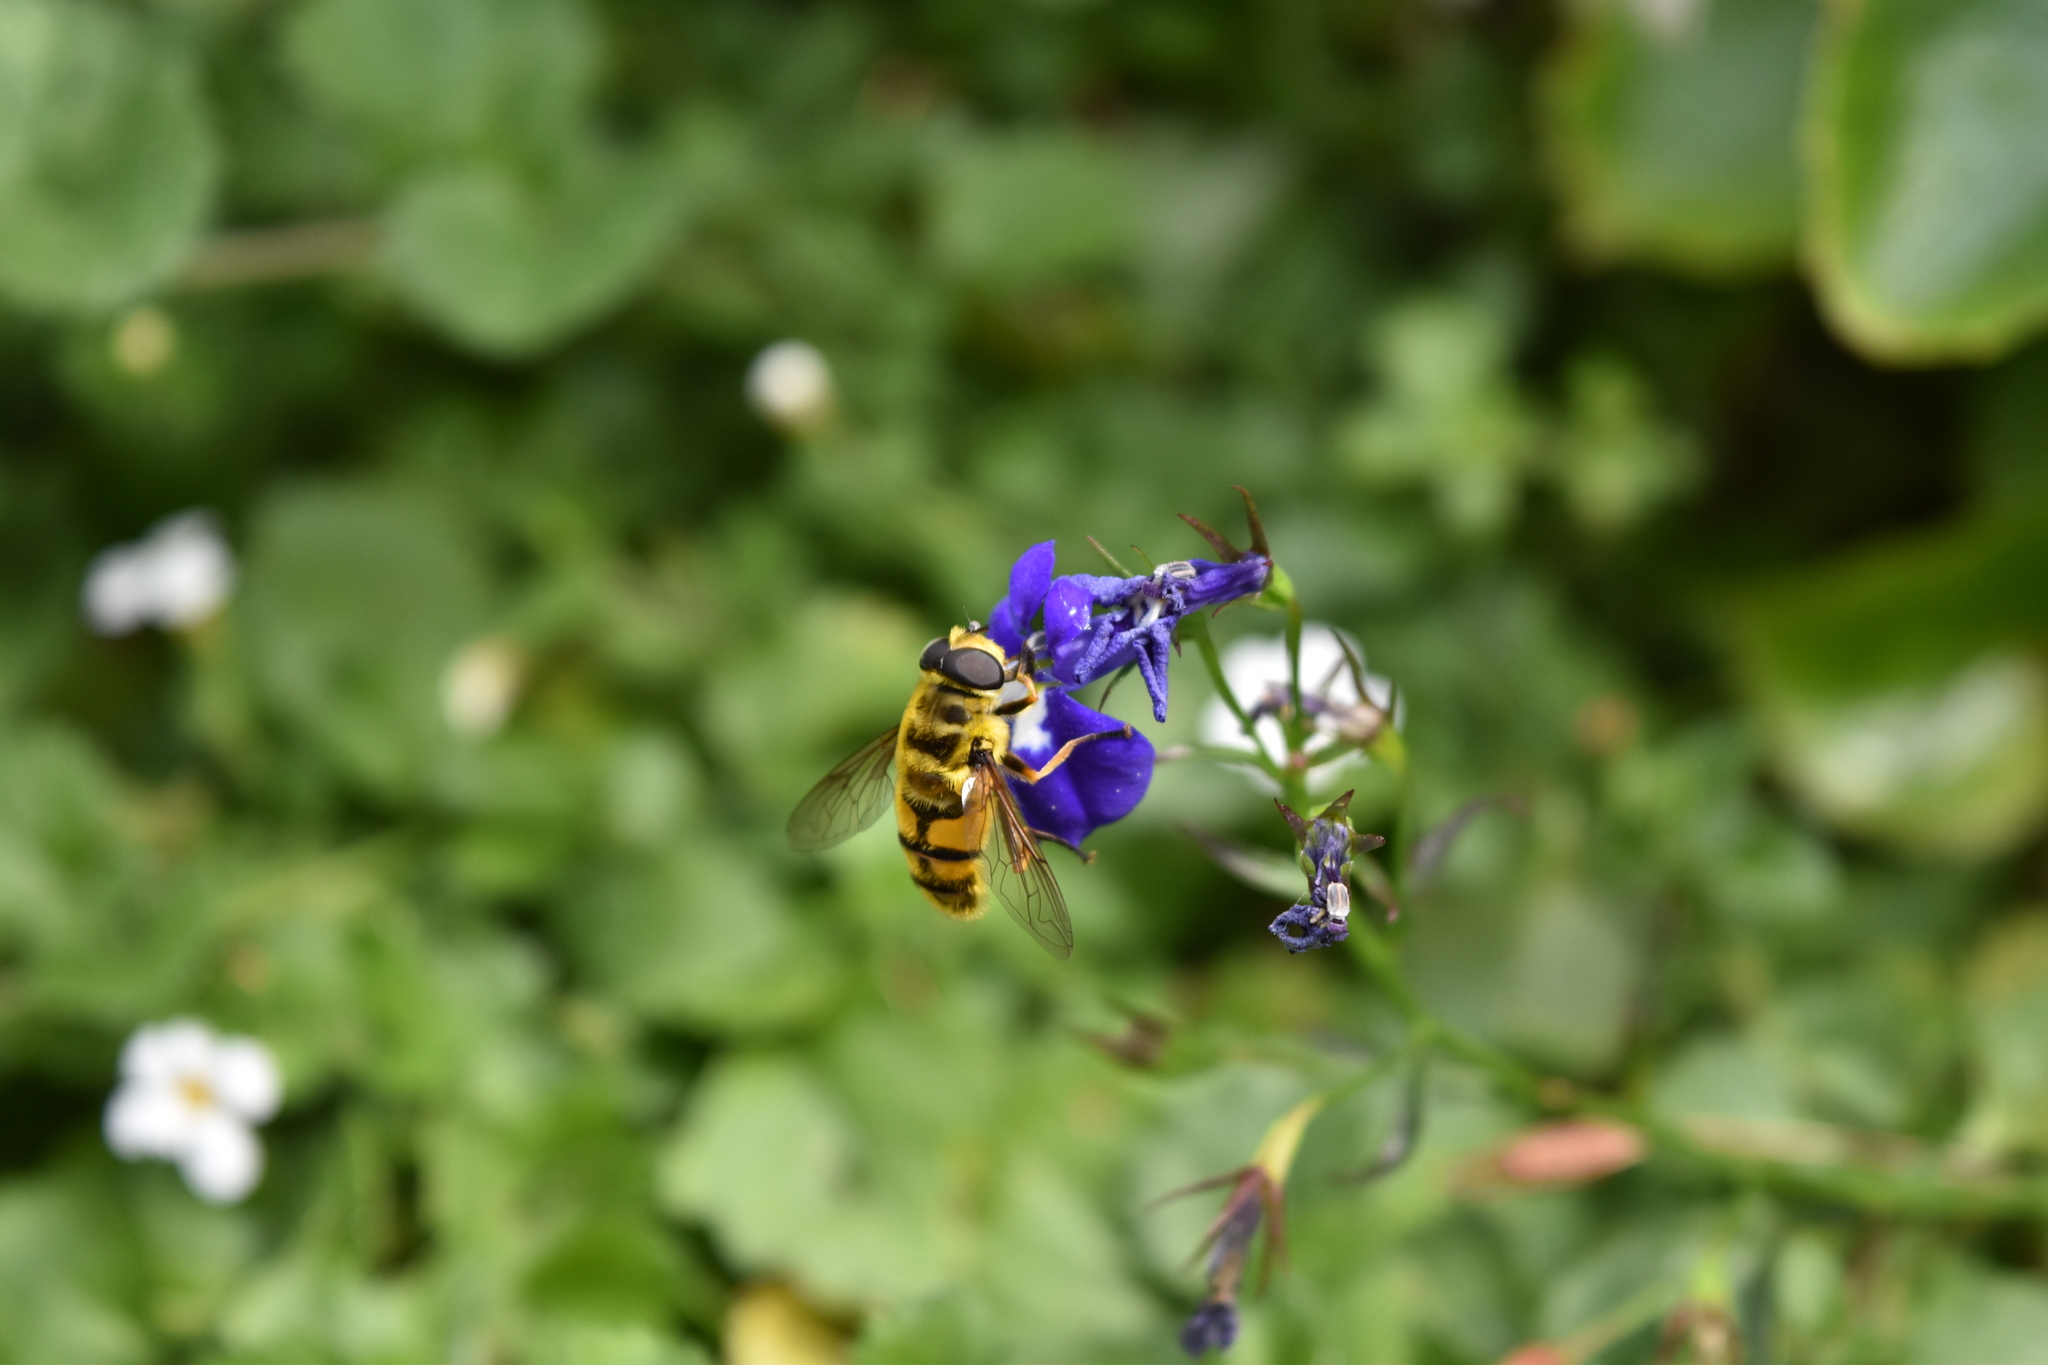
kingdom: Animalia
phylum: Arthropoda
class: Insecta
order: Diptera
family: Syrphidae
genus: Myathropa
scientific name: Myathropa florea
